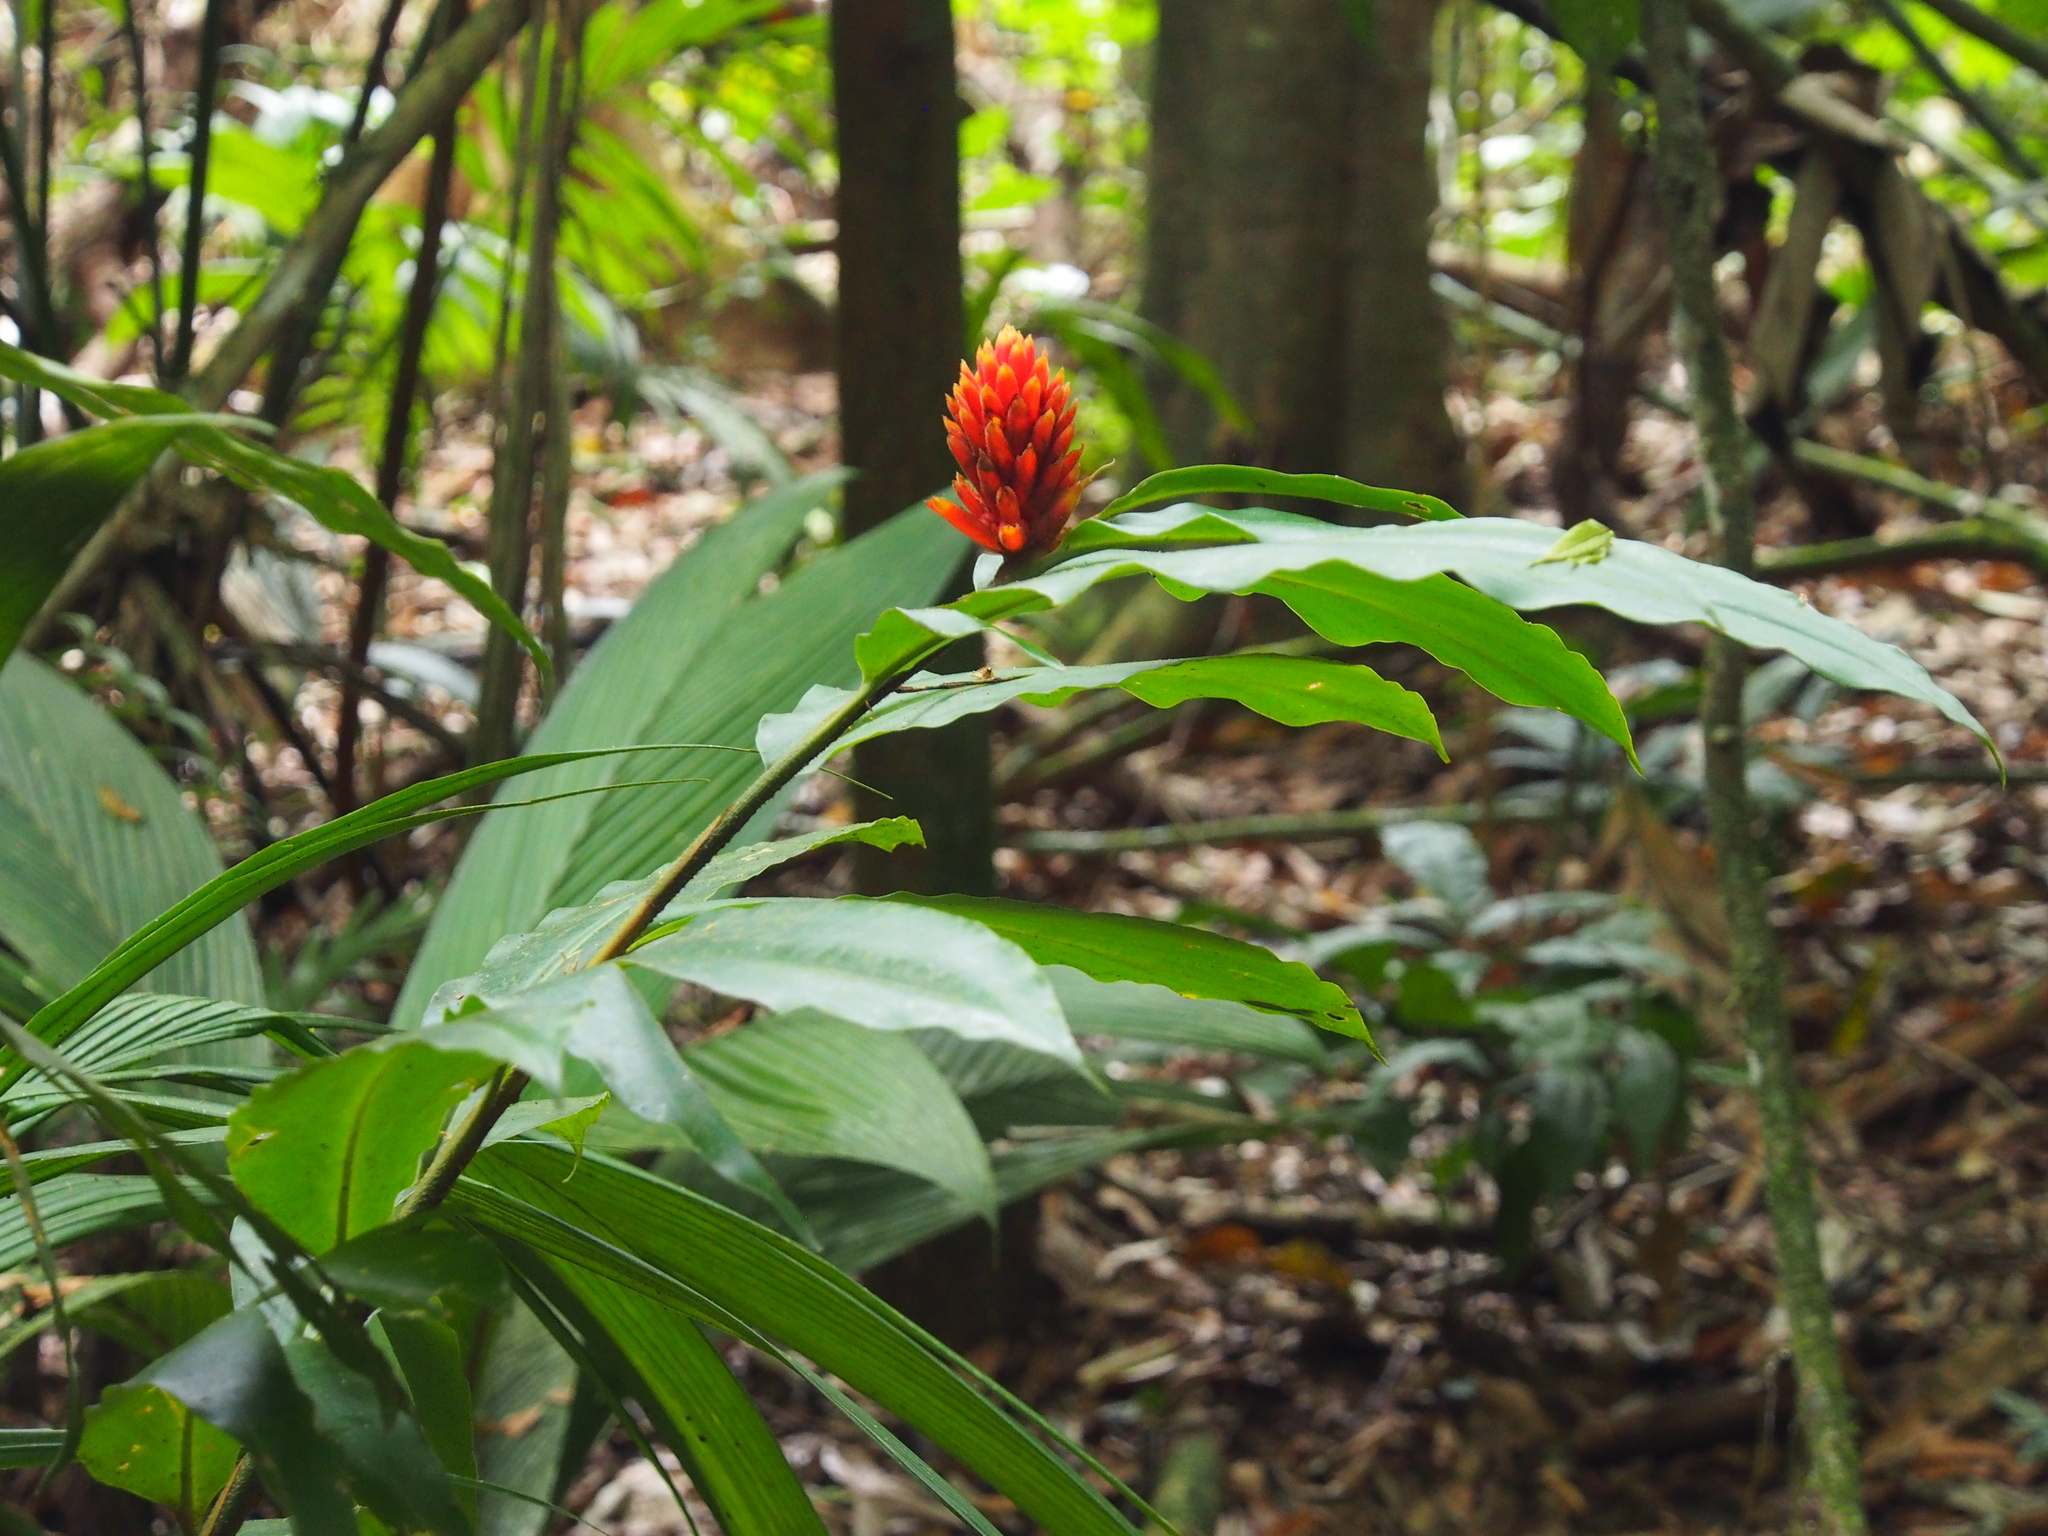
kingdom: Plantae
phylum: Tracheophyta
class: Liliopsida
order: Zingiberales
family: Zingiberaceae
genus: Renealmia
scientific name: Renealmia cernua
